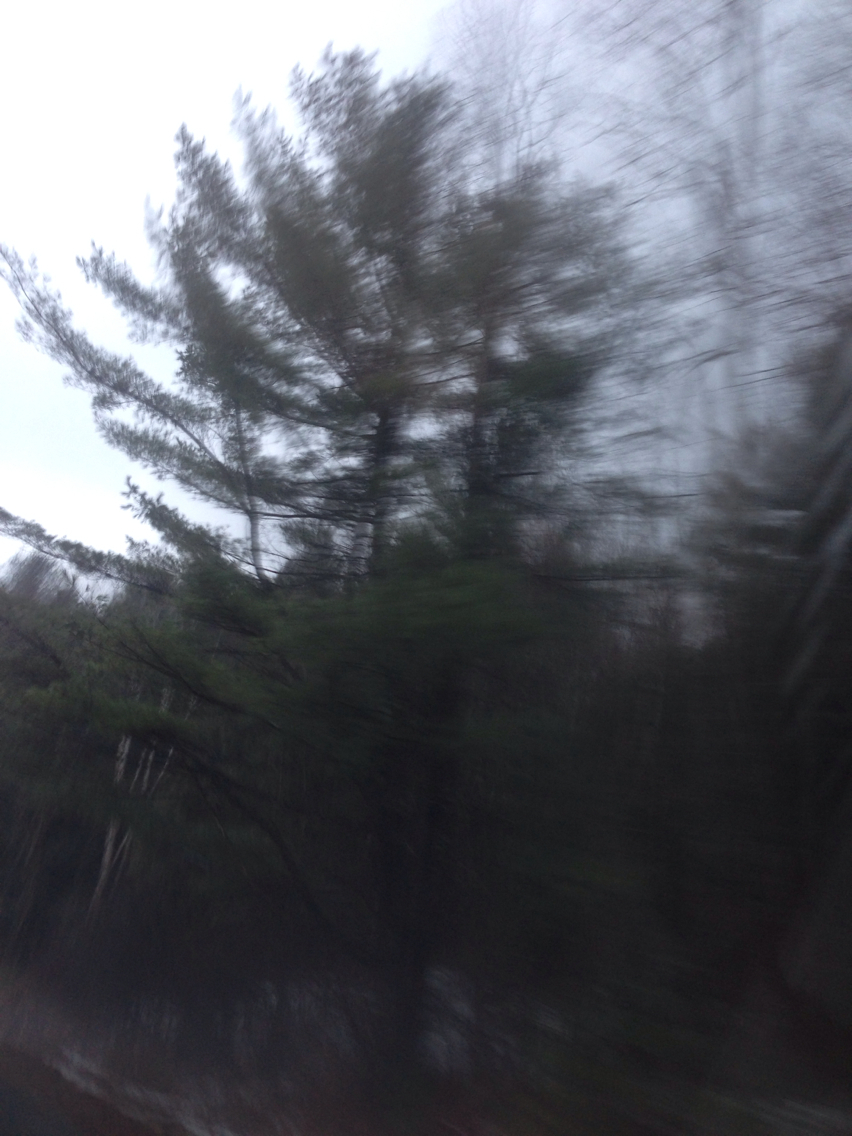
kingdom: Plantae
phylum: Tracheophyta
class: Pinopsida
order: Pinales
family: Pinaceae
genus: Pinus
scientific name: Pinus strobus
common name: Weymouth pine
